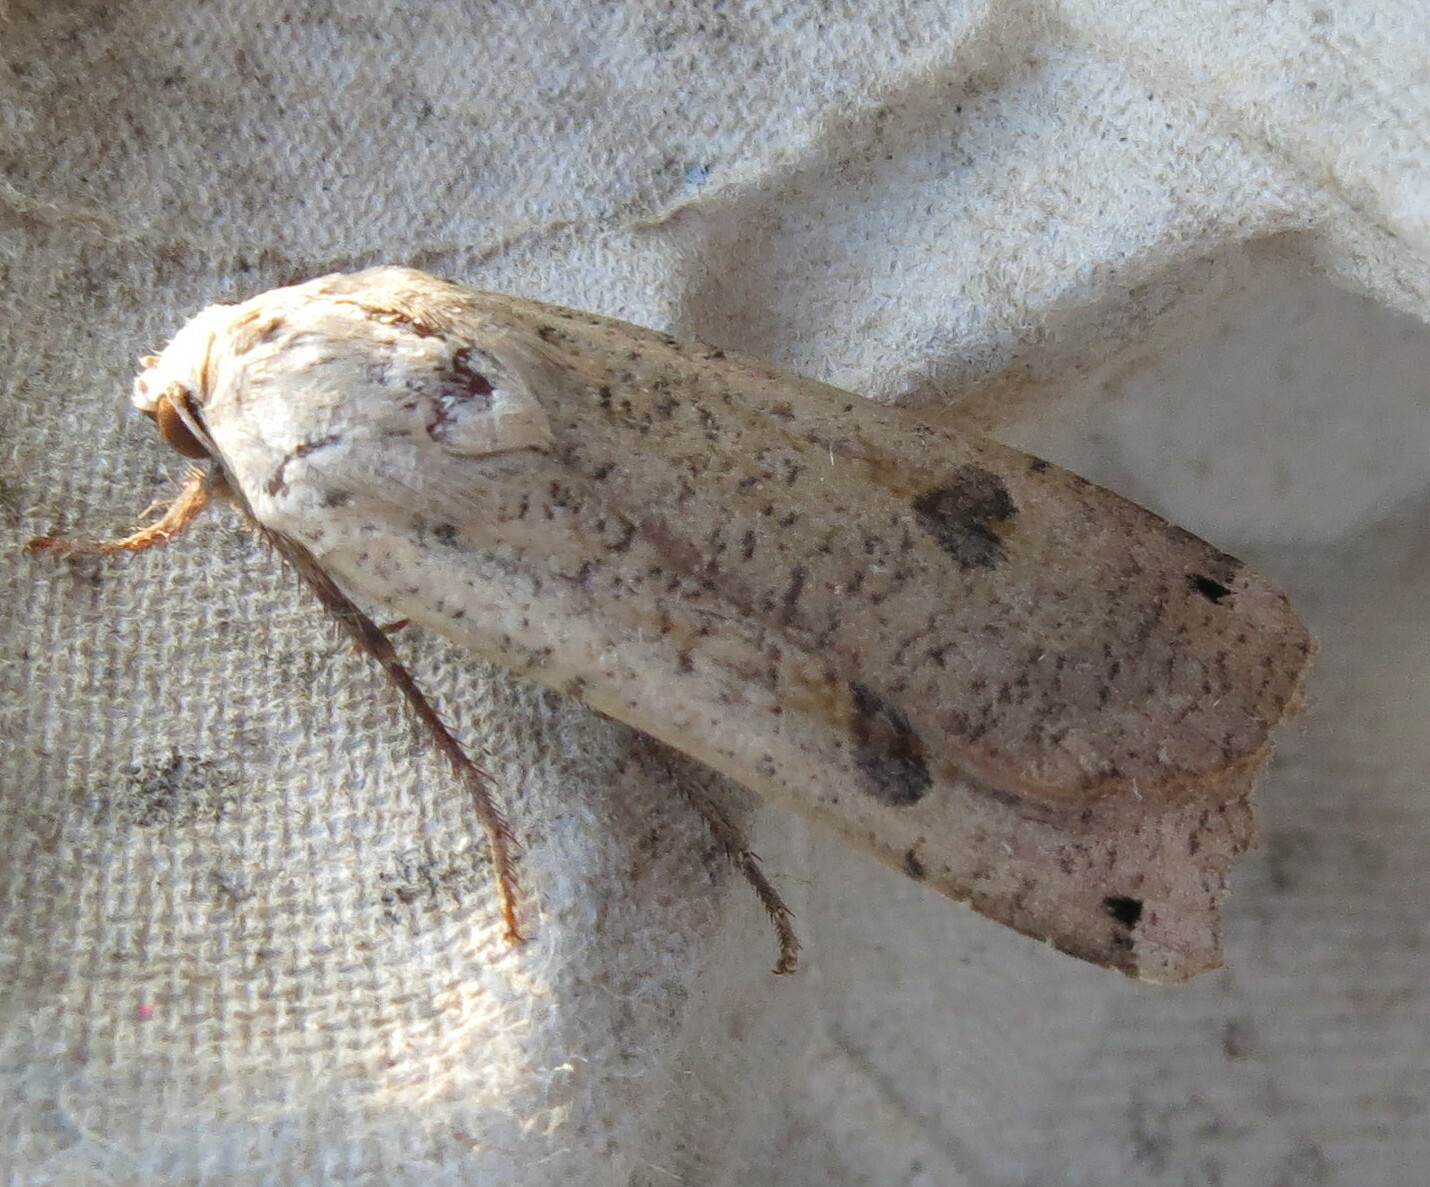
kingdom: Animalia
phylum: Arthropoda
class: Insecta
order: Lepidoptera
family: Noctuidae
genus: Noctua
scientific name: Noctua pronuba
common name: Large yellow underwing
